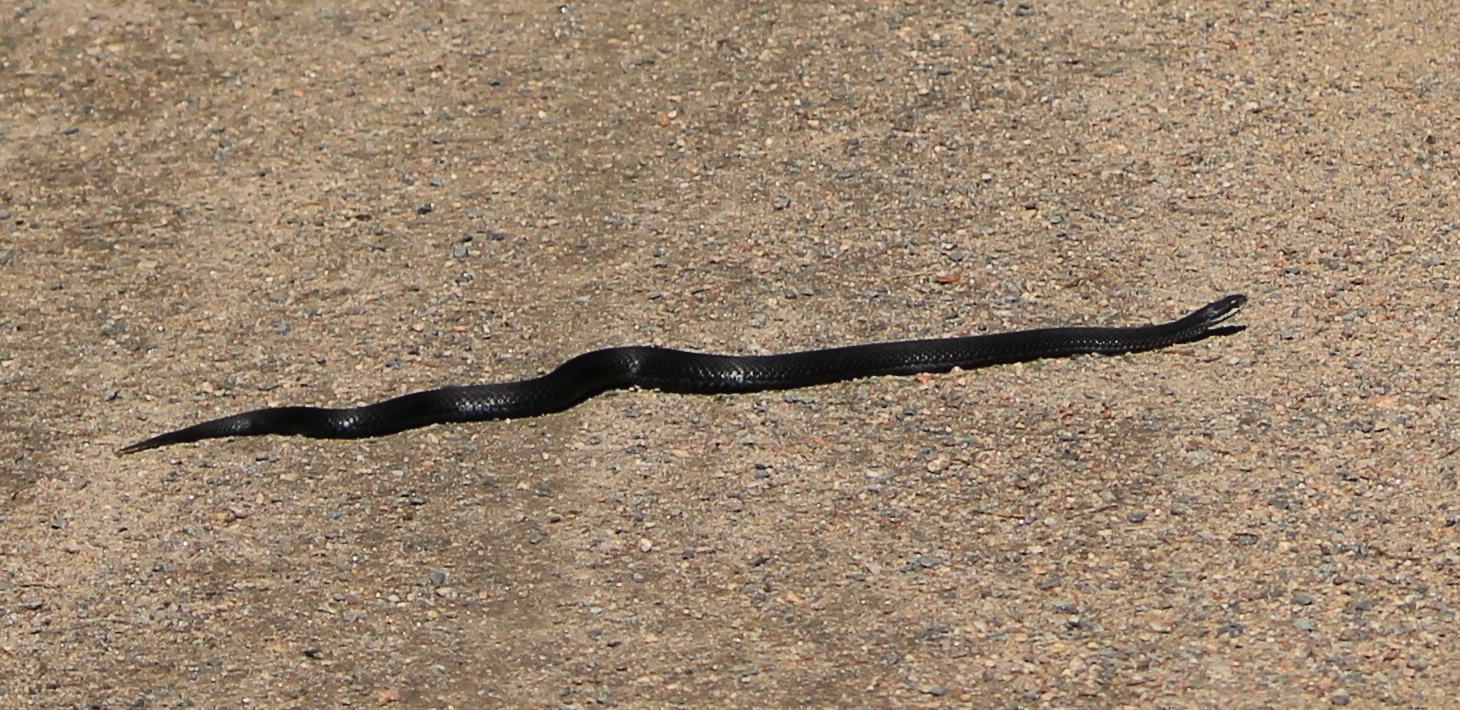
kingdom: Animalia
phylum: Chordata
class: Squamata
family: Viperidae
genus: Vipera
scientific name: Vipera berus
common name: Adder
